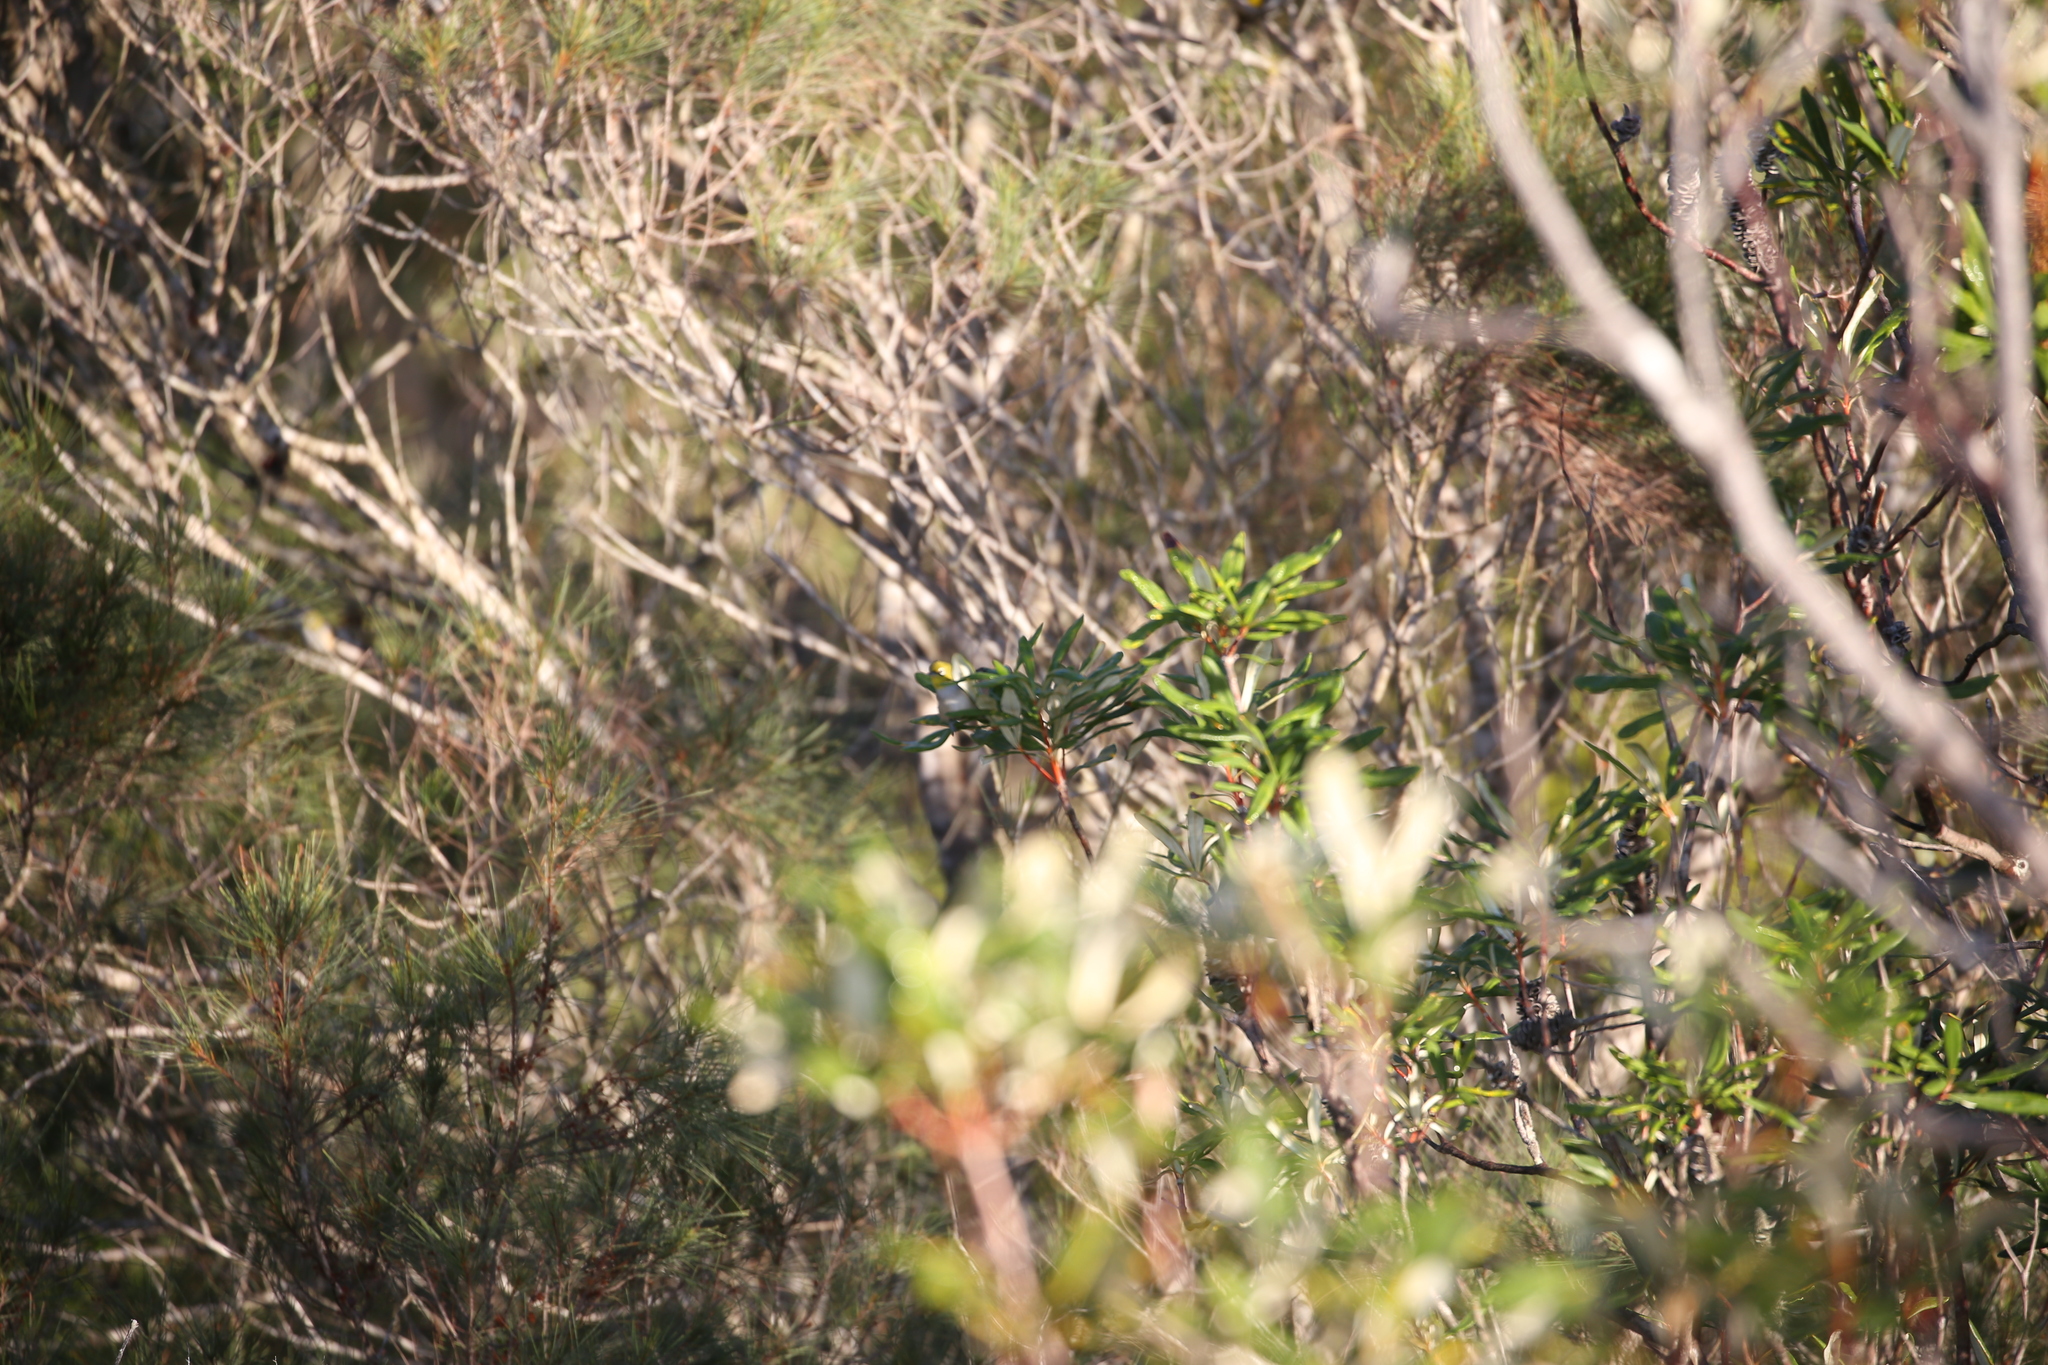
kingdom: Animalia
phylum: Chordata
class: Aves
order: Passeriformes
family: Zosteropidae
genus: Zosterops
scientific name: Zosterops lateralis
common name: Silvereye
